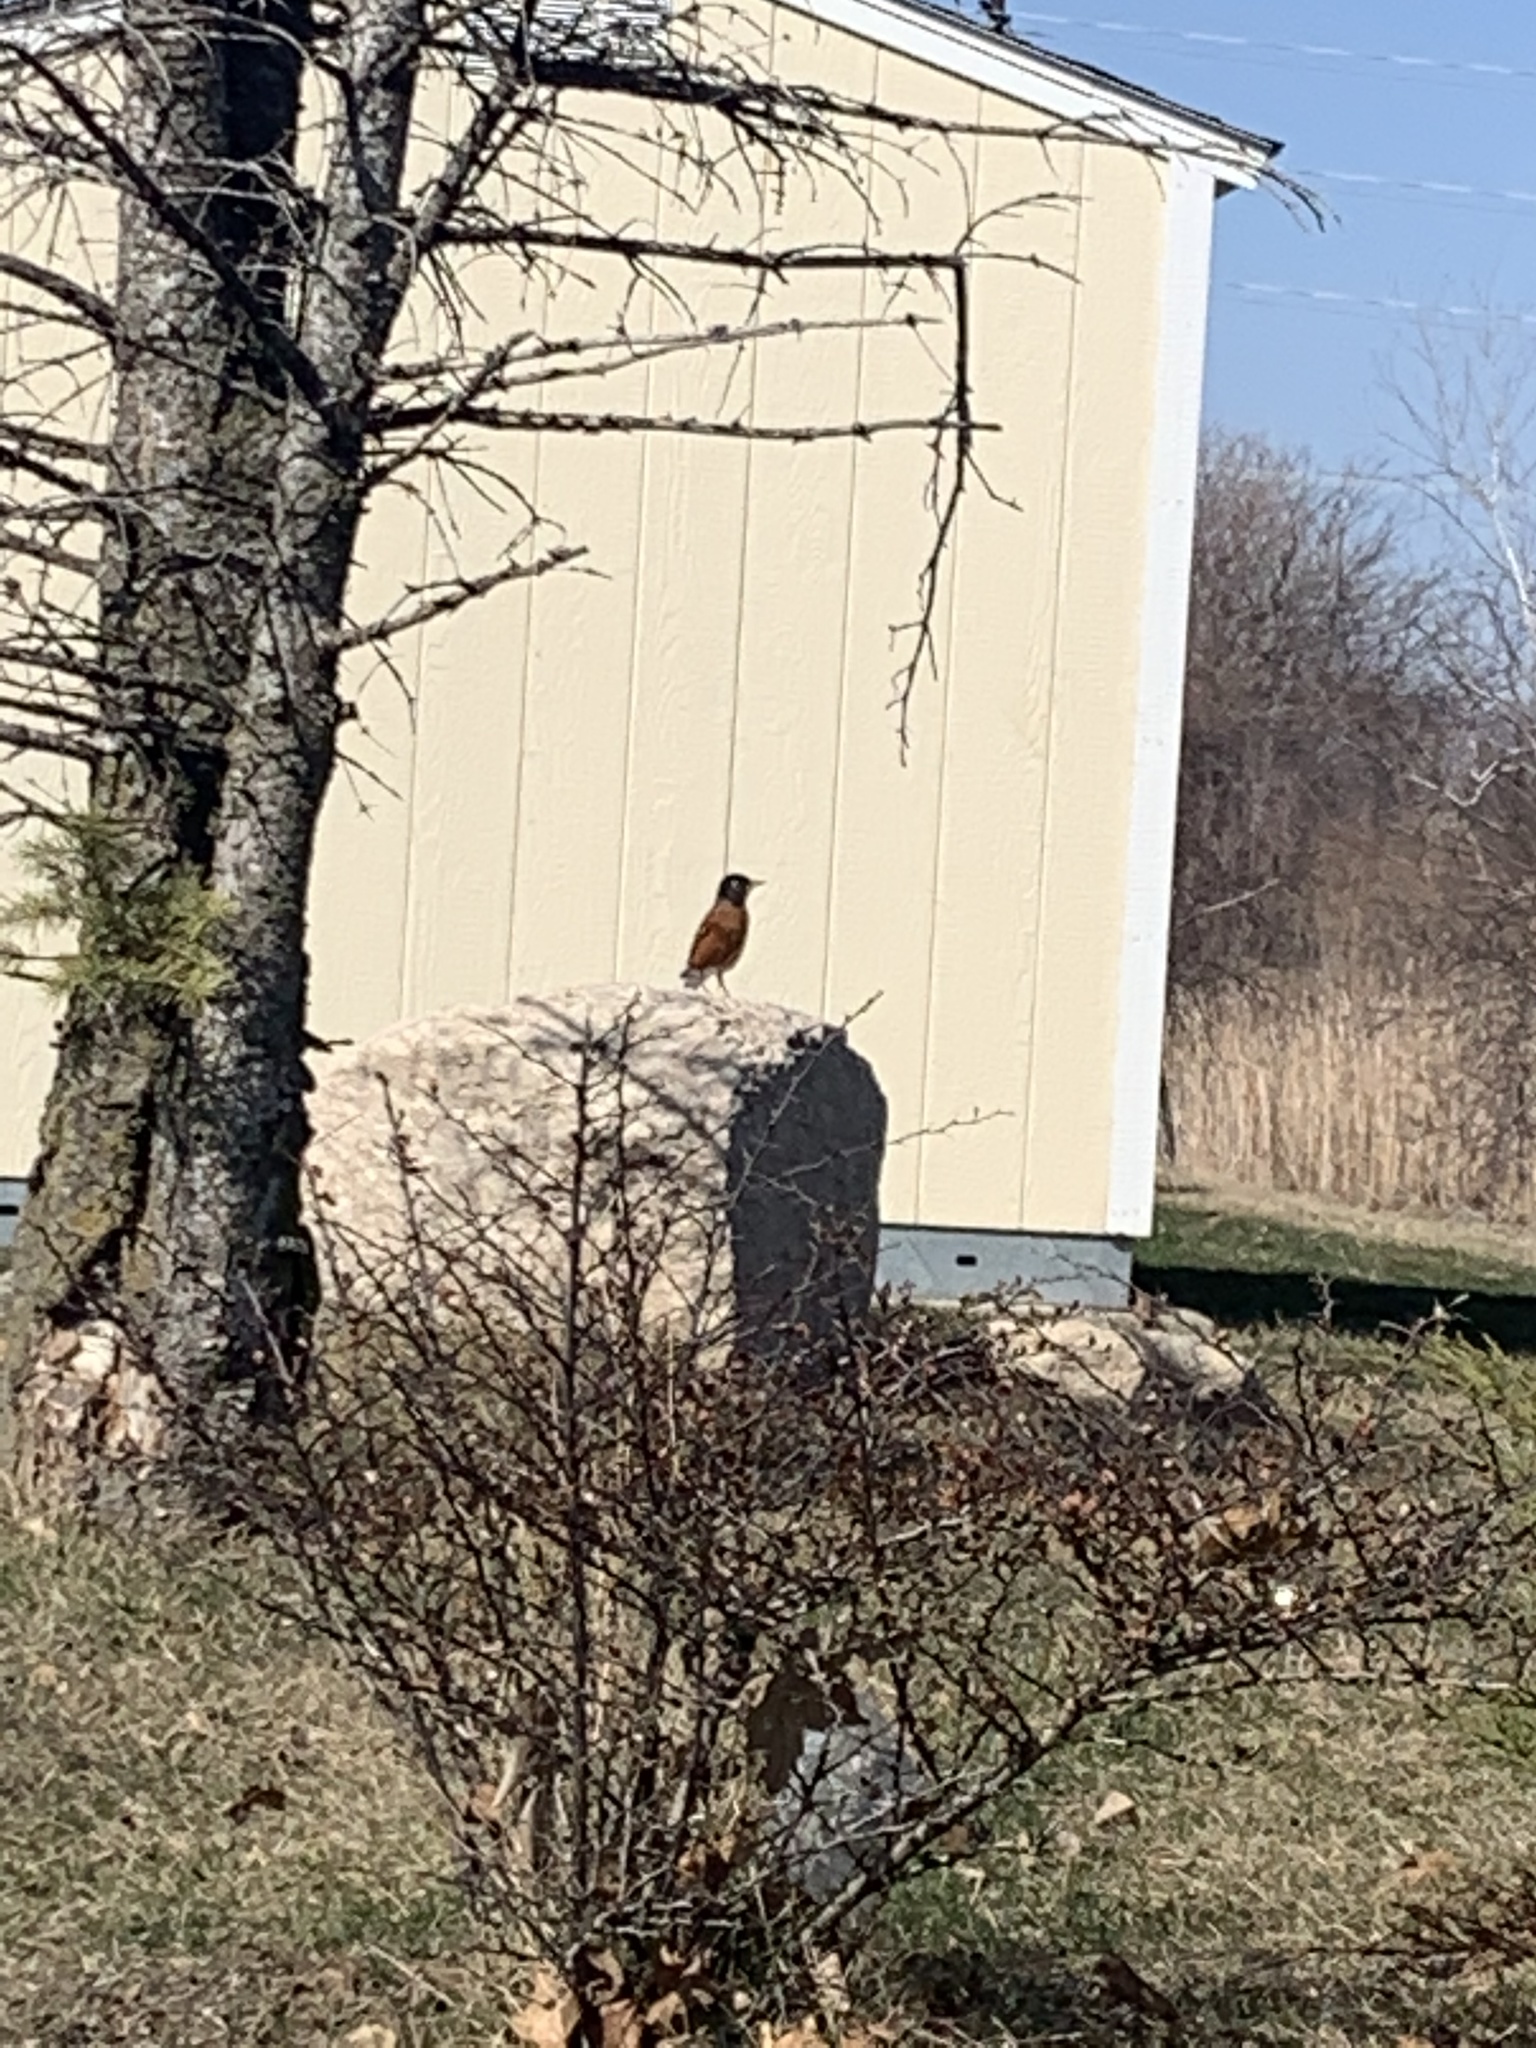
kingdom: Animalia
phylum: Chordata
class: Aves
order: Passeriformes
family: Turdidae
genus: Turdus
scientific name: Turdus migratorius
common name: American robin
